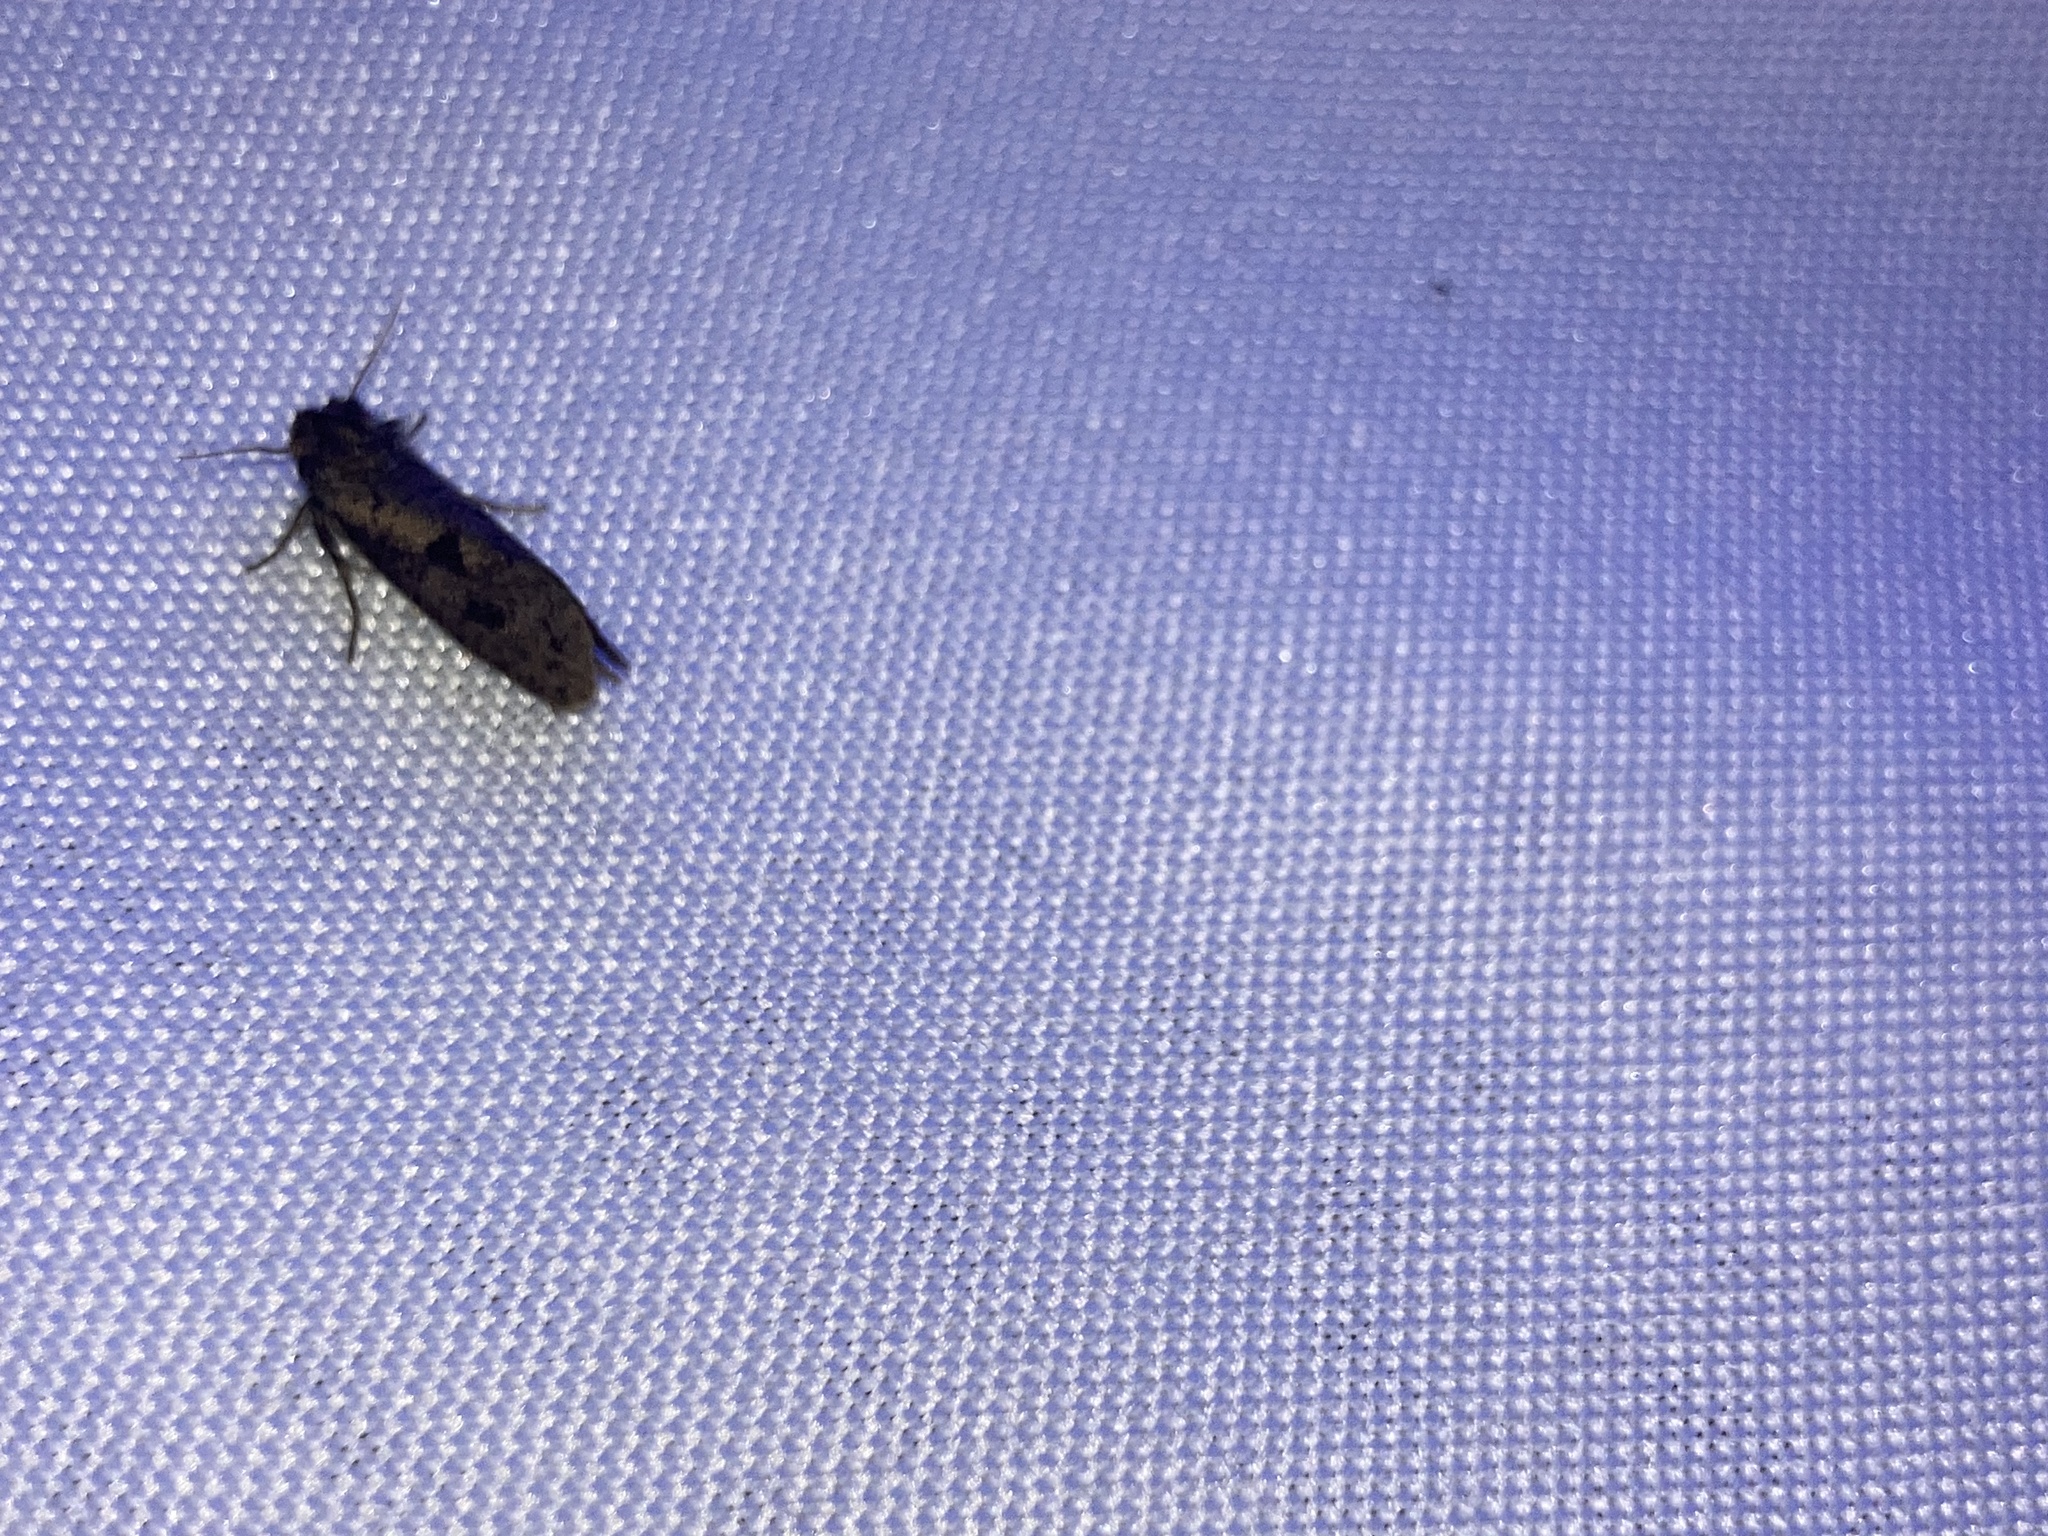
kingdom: Animalia
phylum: Arthropoda
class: Insecta
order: Lepidoptera
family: Tineidae
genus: Acrolophus
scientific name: Acrolophus popeanella
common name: Clemens' grass tubeworm moth
